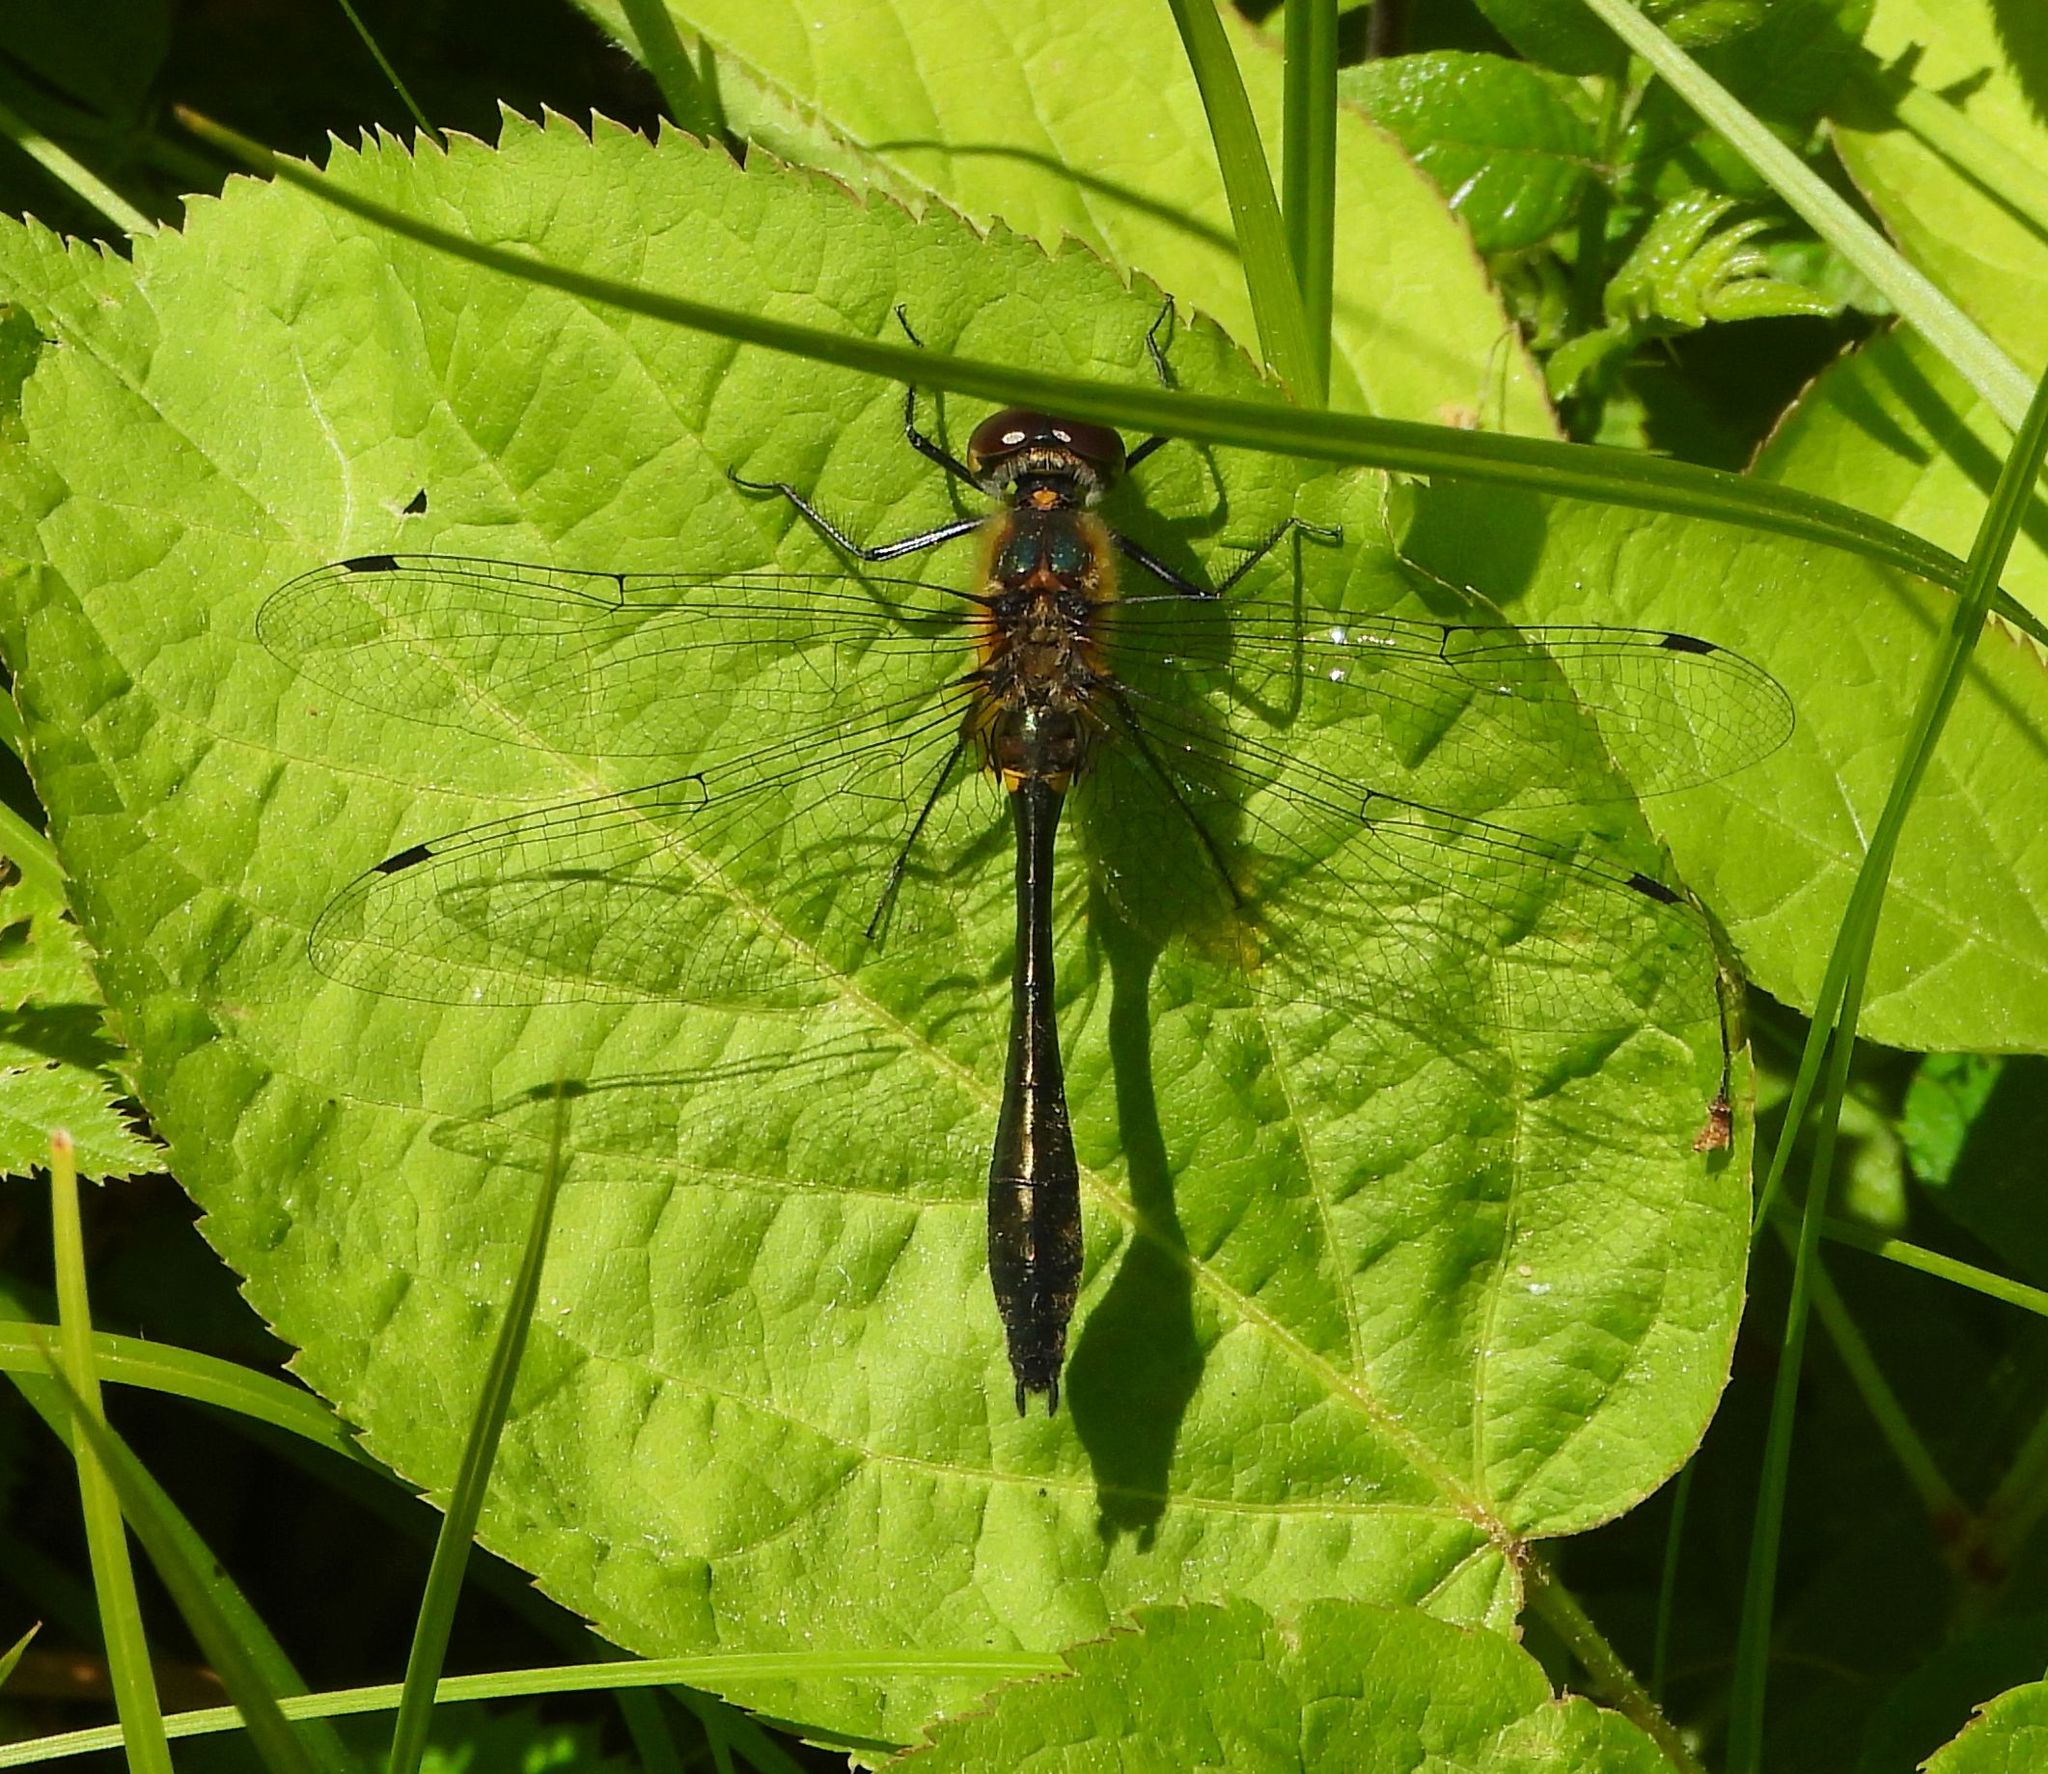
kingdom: Animalia
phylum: Arthropoda
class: Insecta
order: Odonata
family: Corduliidae
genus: Dorocordulia
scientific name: Dorocordulia libera
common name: Racket-tailed emerald
